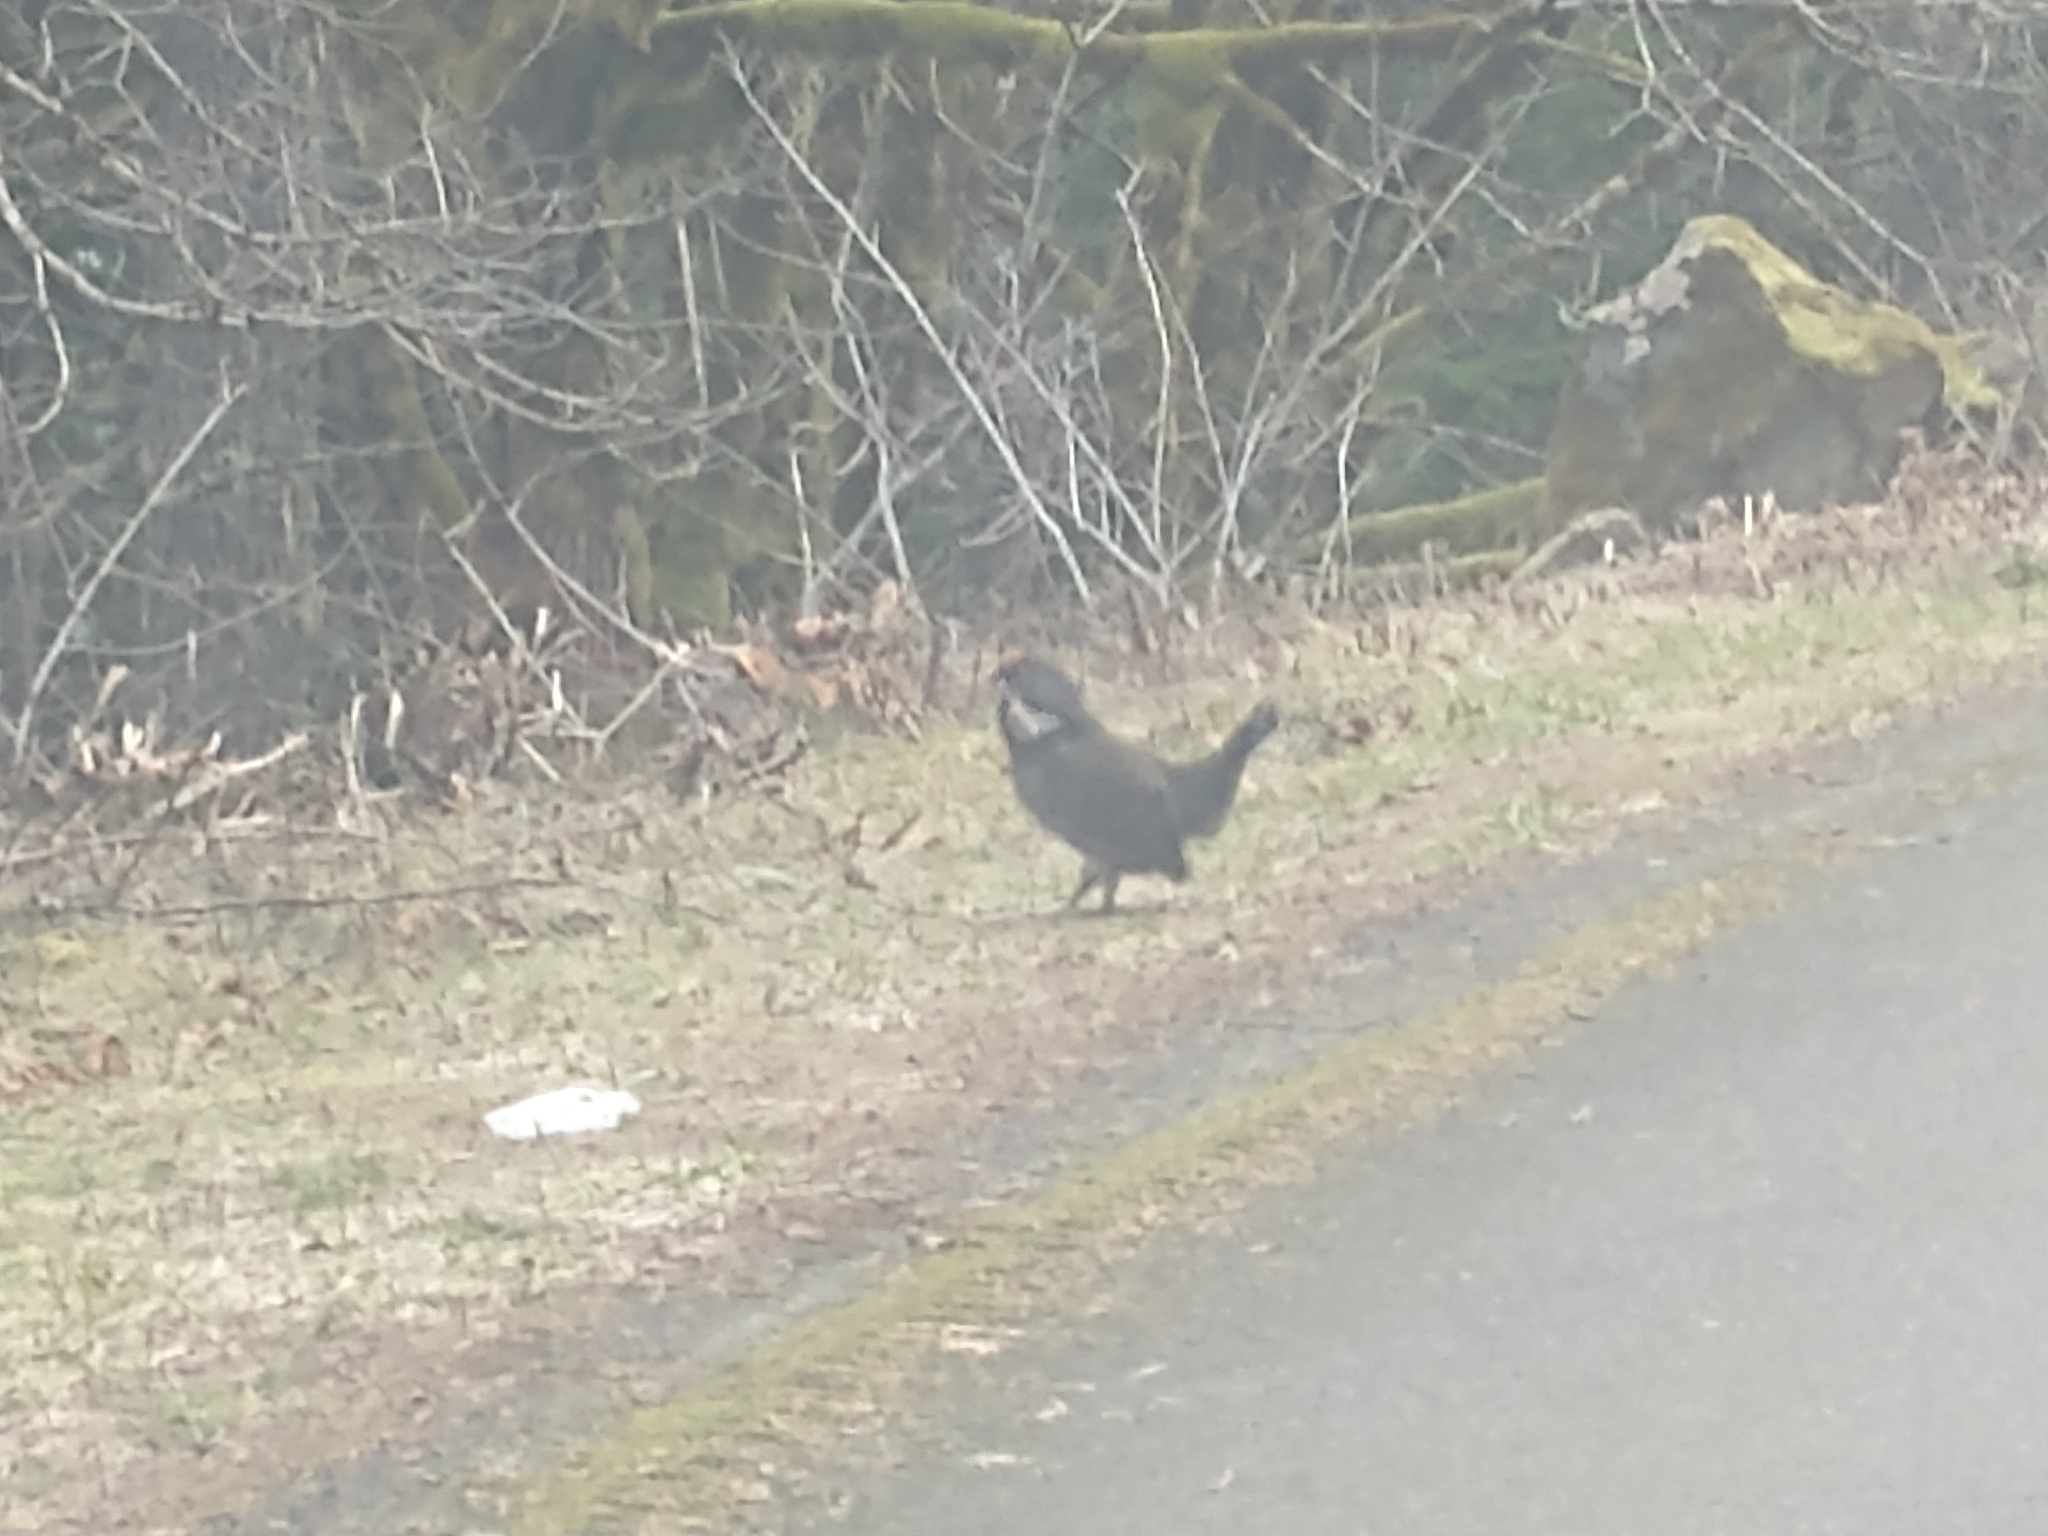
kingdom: Animalia
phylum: Chordata
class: Aves
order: Galliformes
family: Phasianidae
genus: Dendragapus
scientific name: Dendragapus fuliginosus
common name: Sooty grouse
